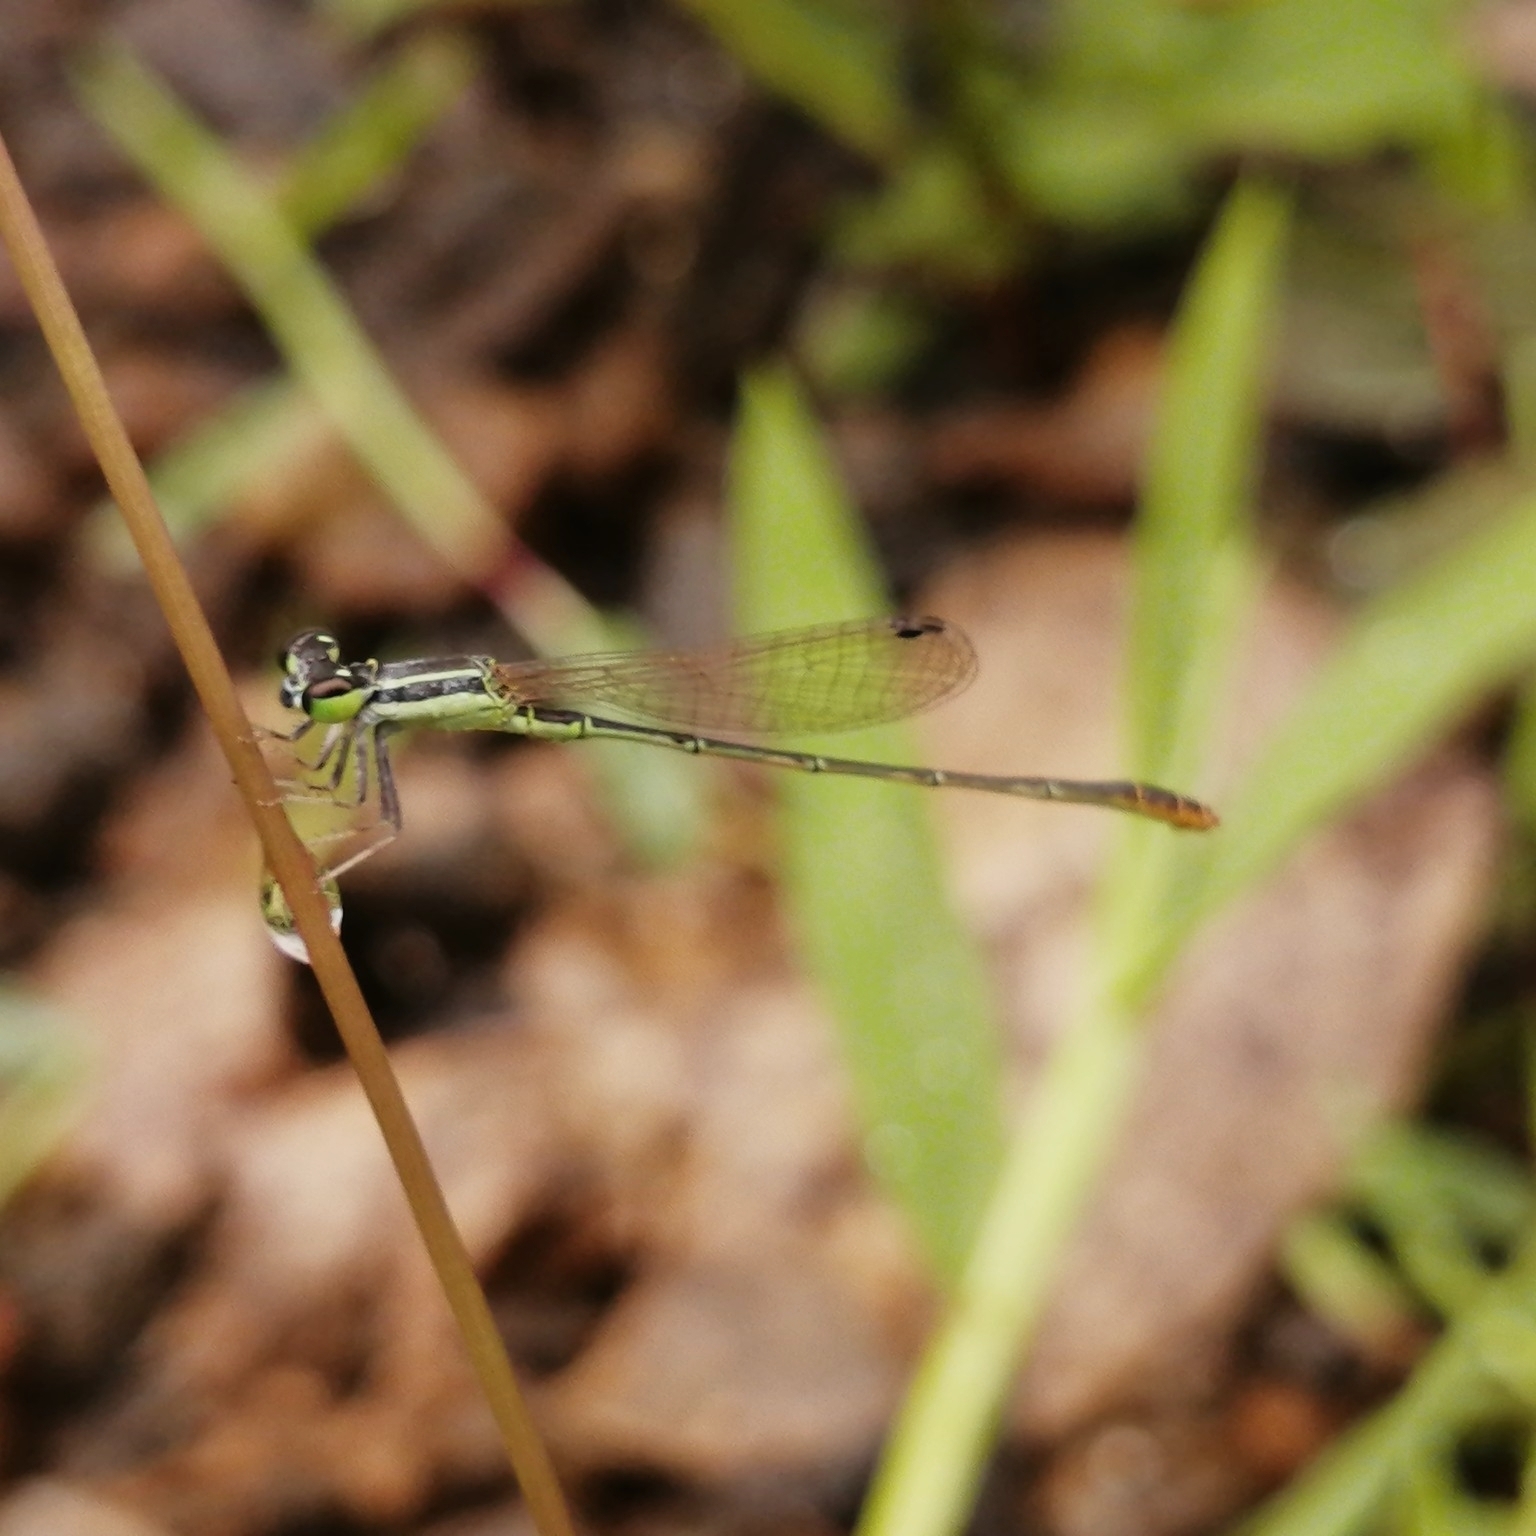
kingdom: Animalia
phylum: Arthropoda
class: Insecta
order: Odonata
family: Coenagrionidae
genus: Agriocnemis
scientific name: Agriocnemis pygmaea
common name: Pygmy wisp
